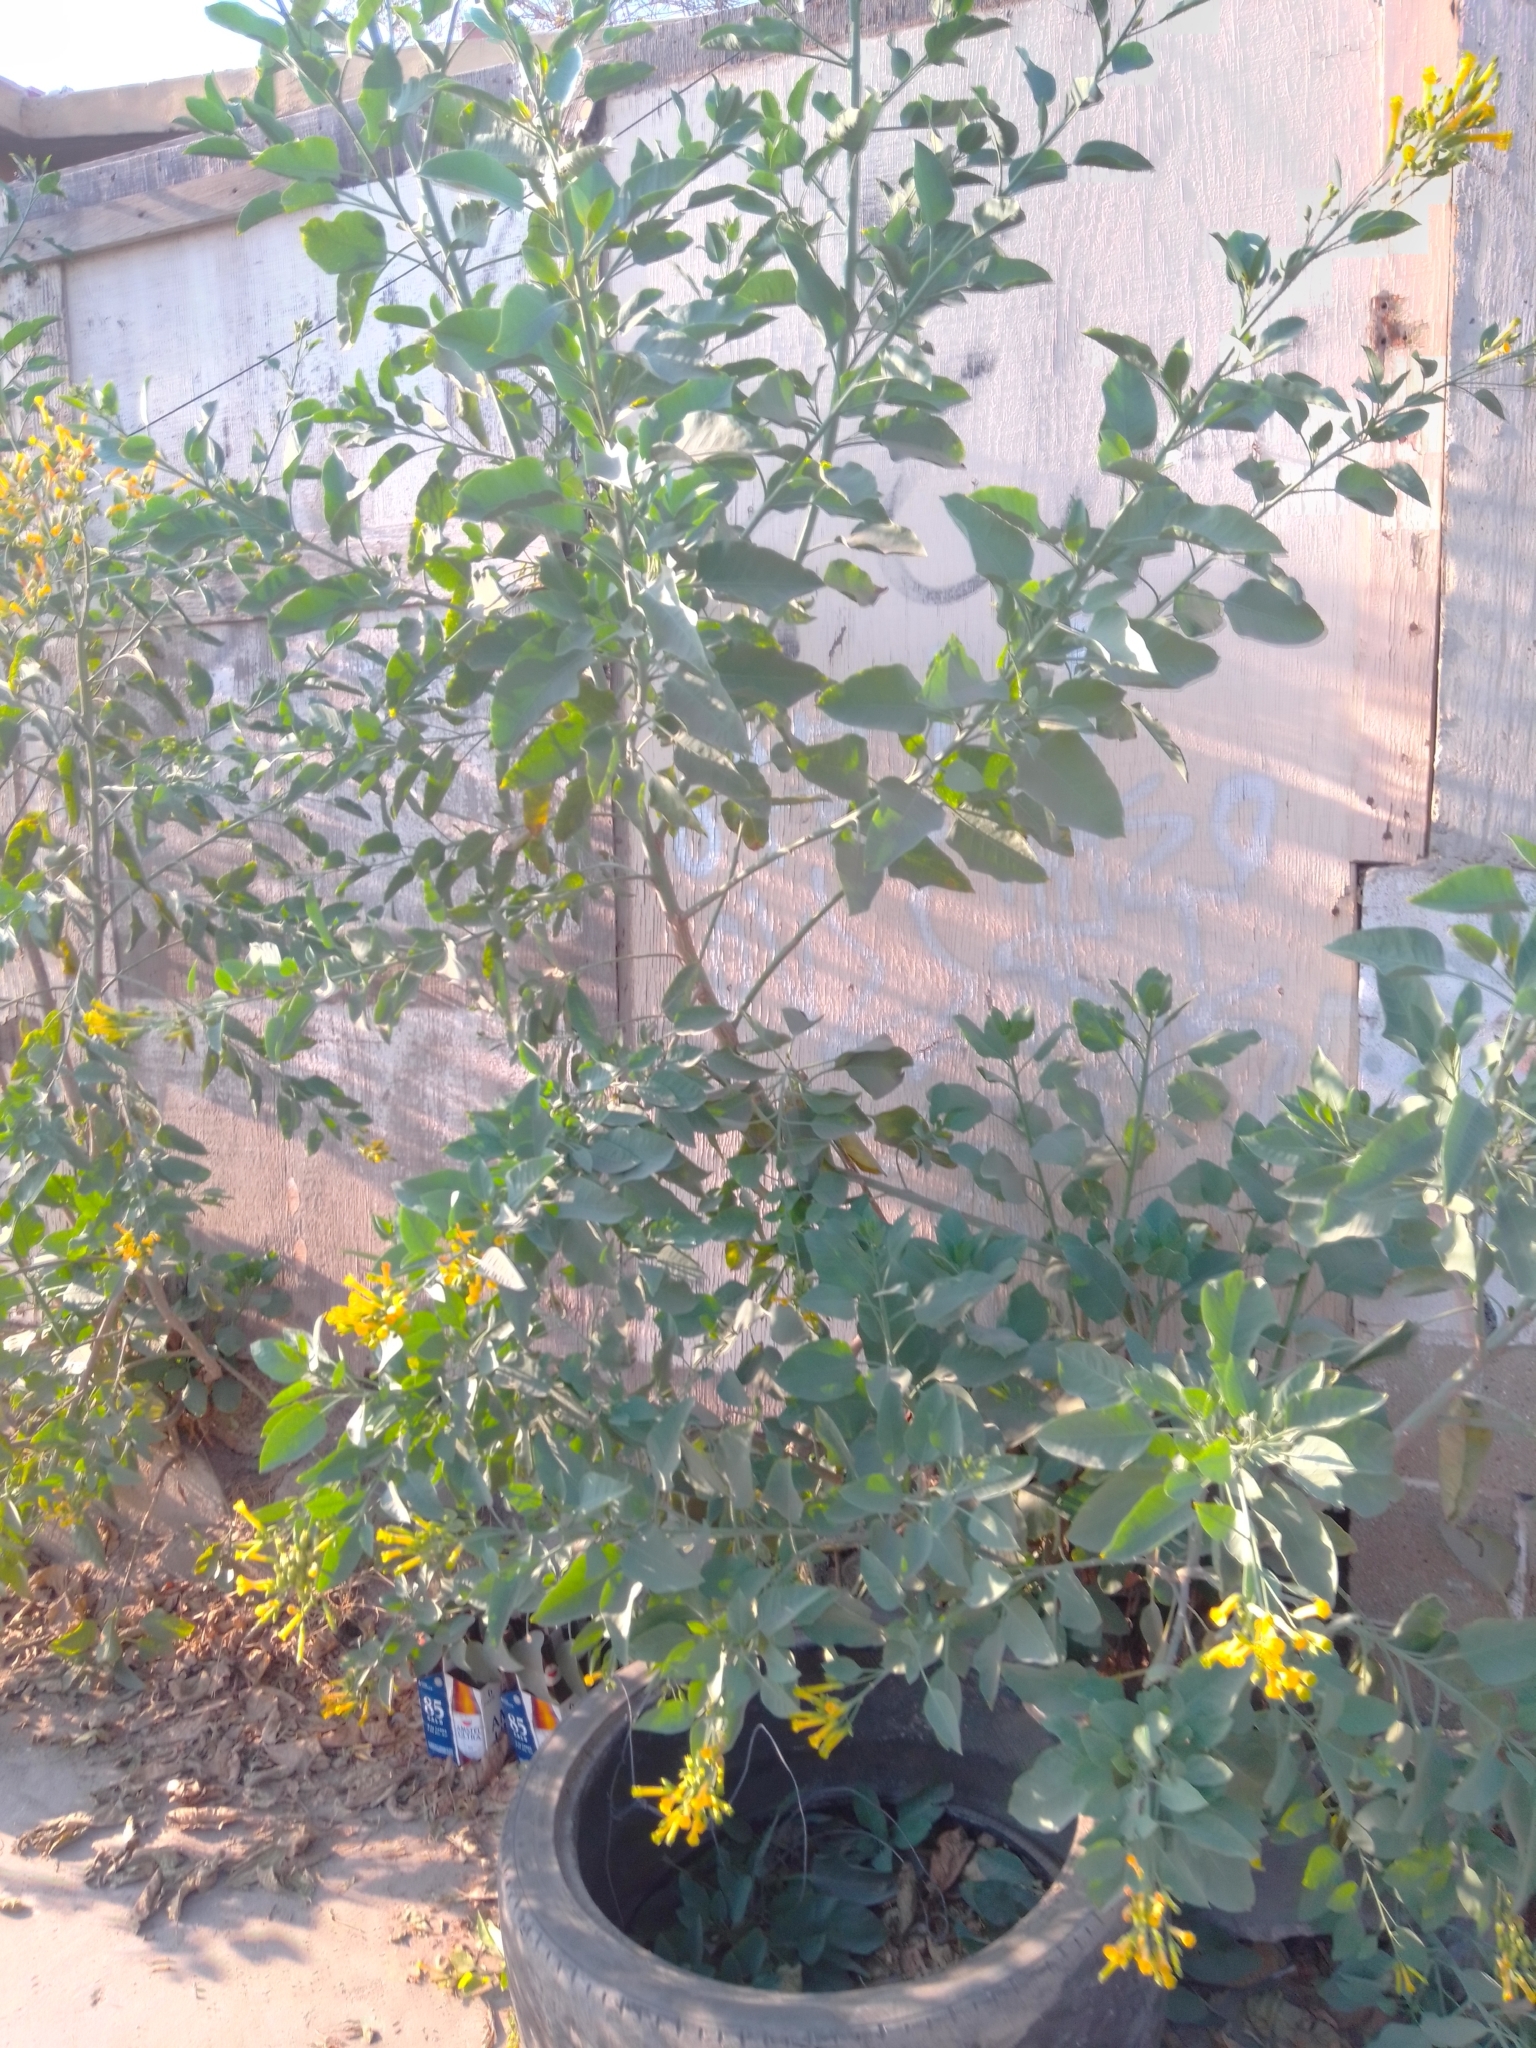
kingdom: Plantae
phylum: Tracheophyta
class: Magnoliopsida
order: Solanales
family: Solanaceae
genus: Nicotiana
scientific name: Nicotiana glauca
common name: Tree tobacco
